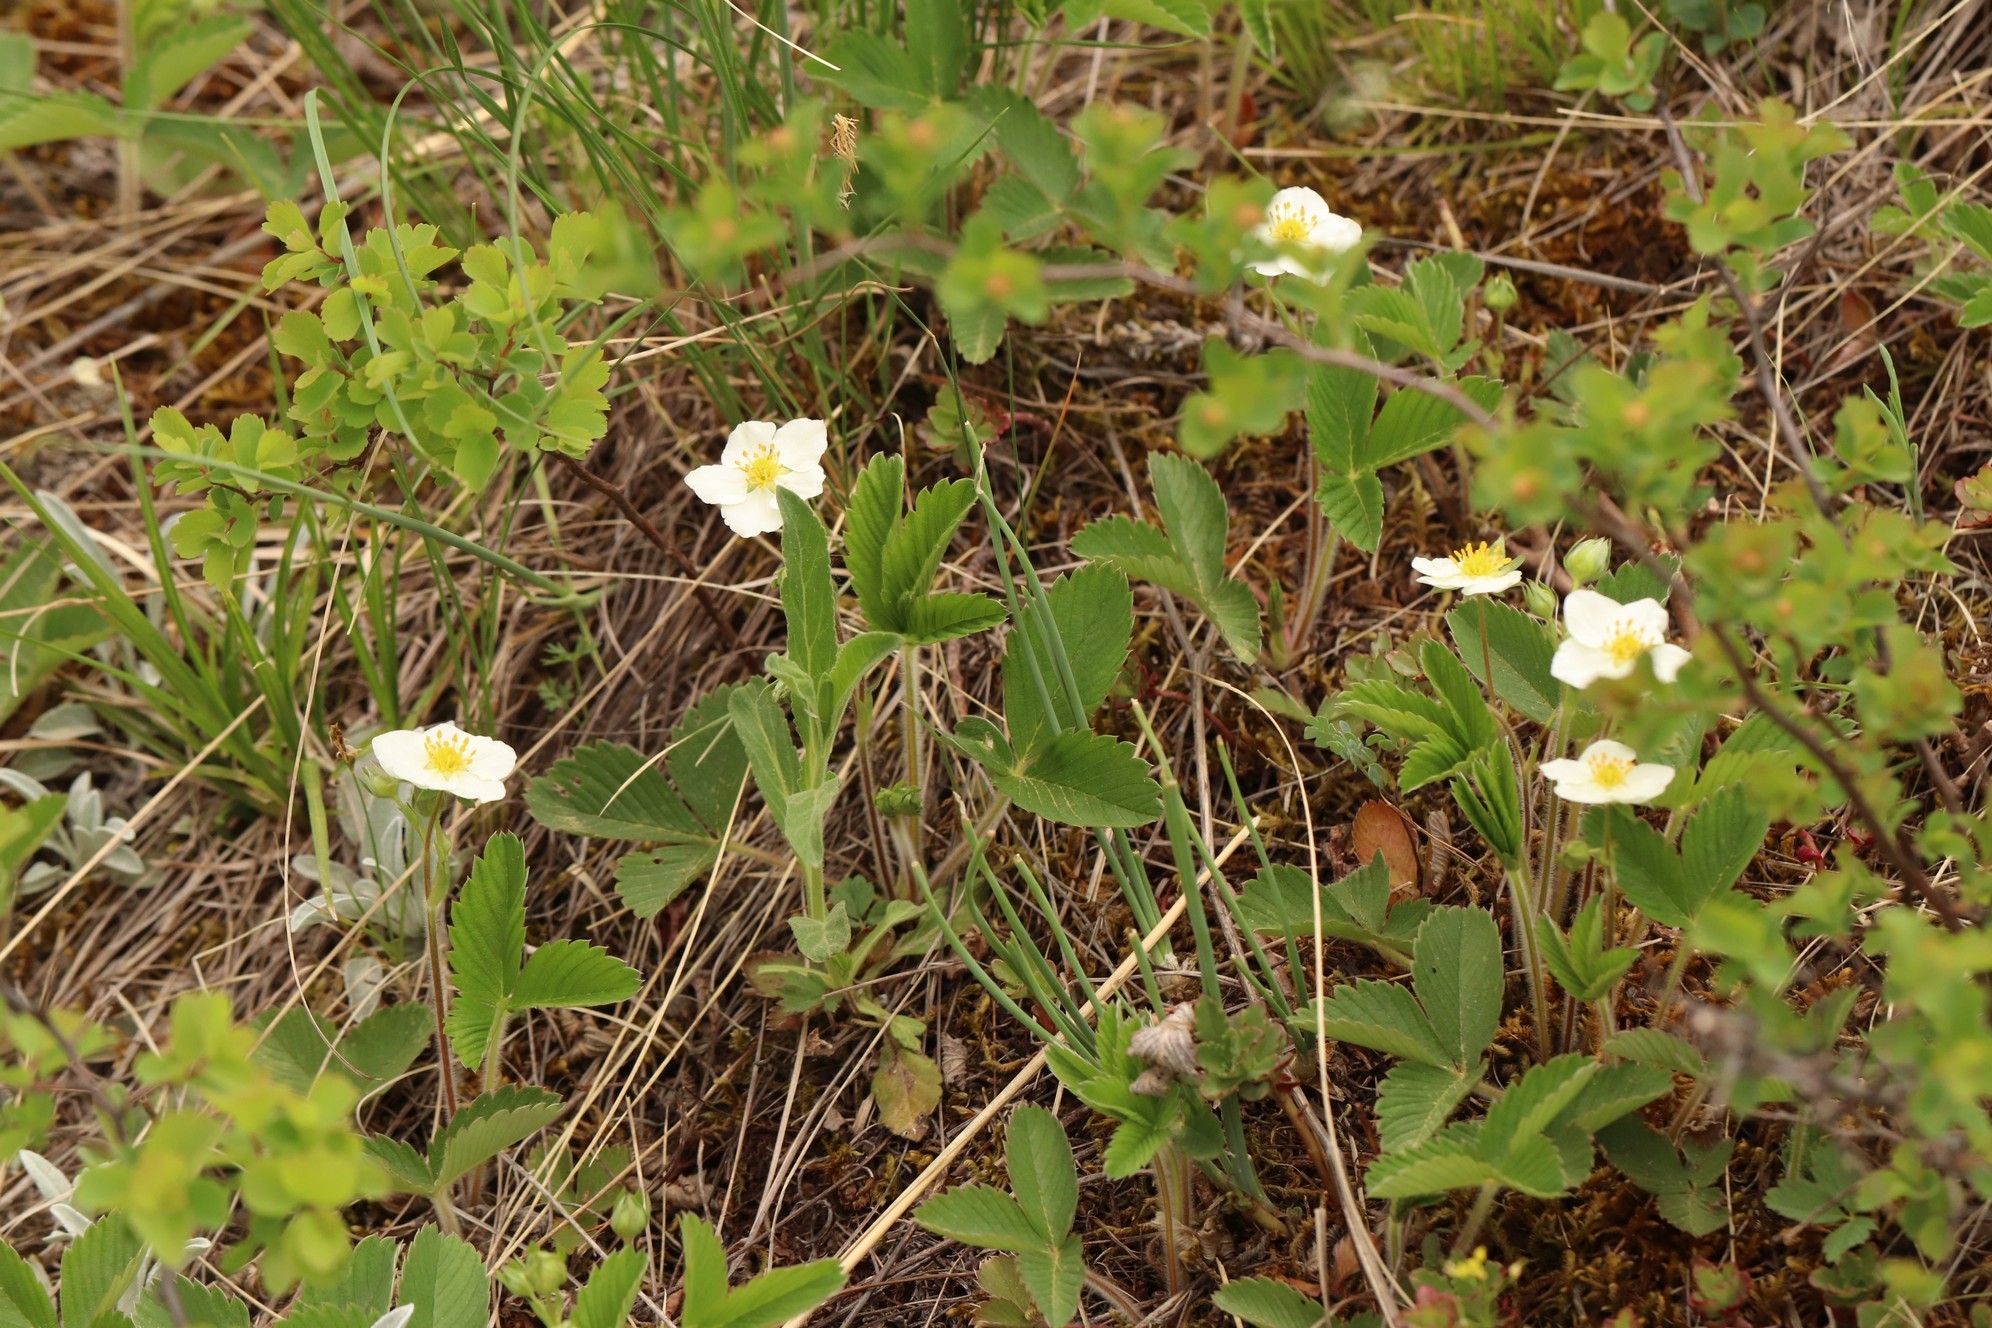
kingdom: Plantae
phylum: Tracheophyta
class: Magnoliopsida
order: Rosales
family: Rosaceae
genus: Fragaria
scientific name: Fragaria viridis
